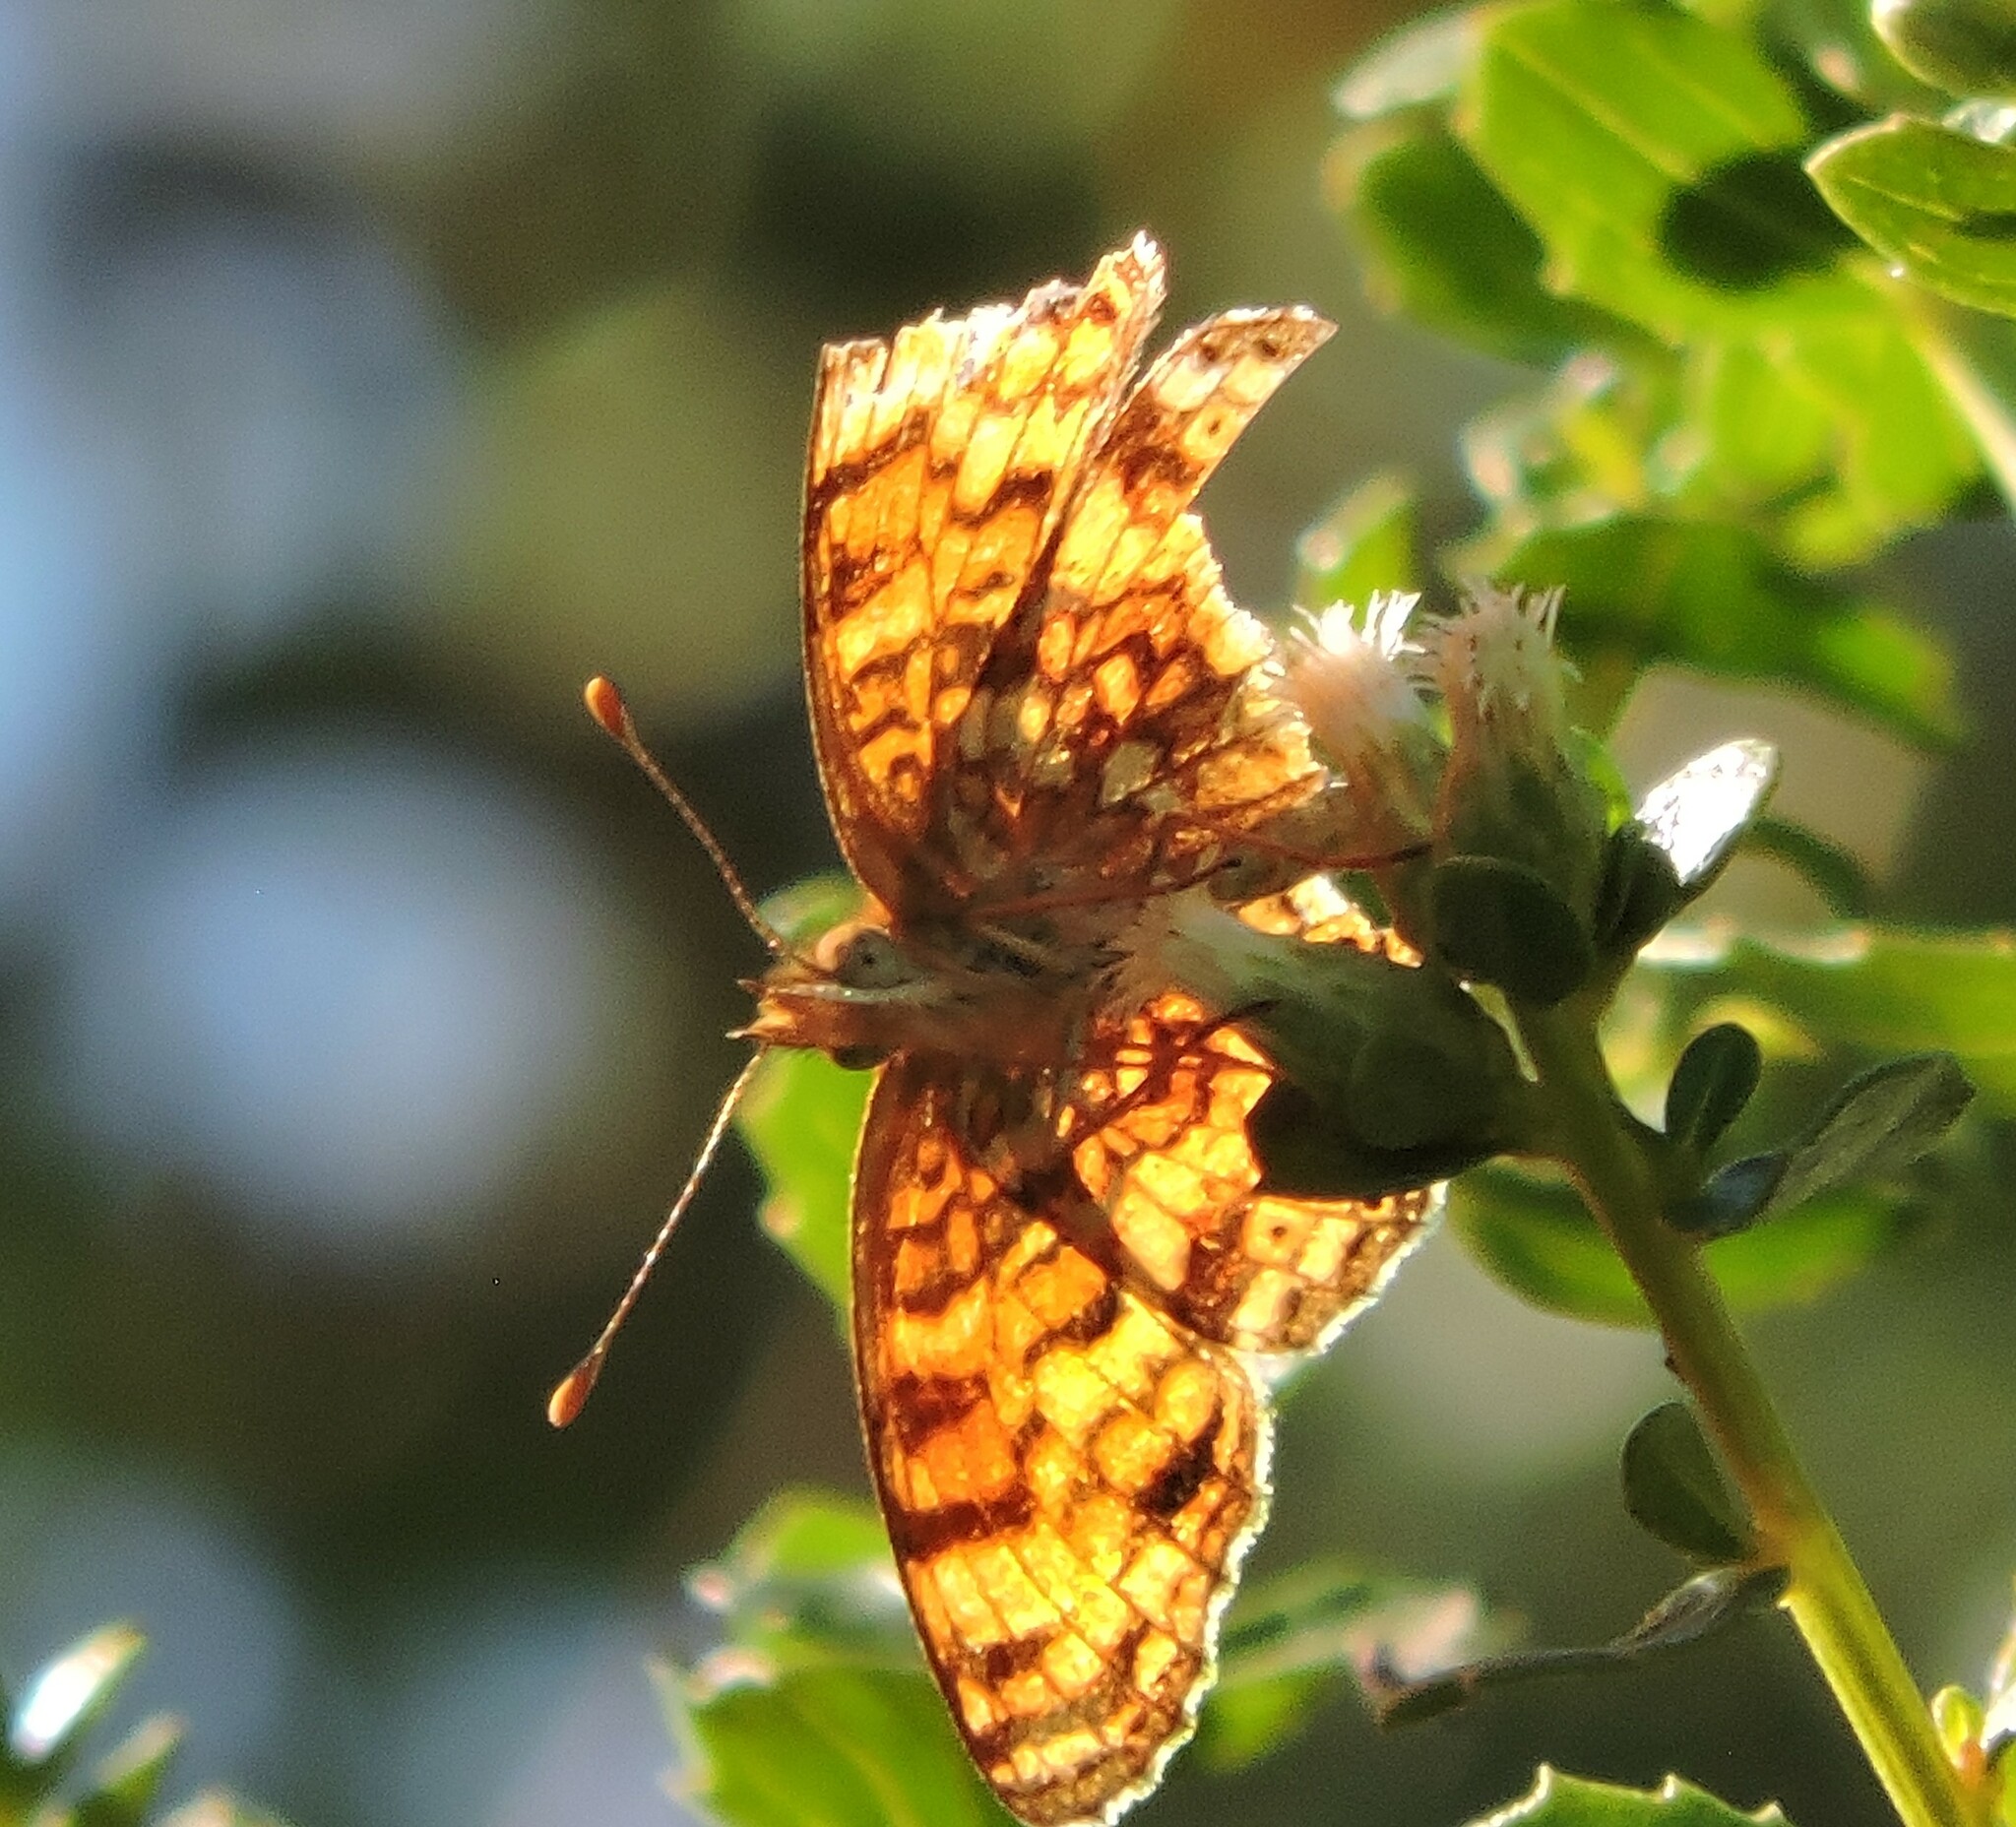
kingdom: Animalia
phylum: Arthropoda
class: Insecta
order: Lepidoptera
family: Nymphalidae
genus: Eresia
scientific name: Eresia aveyrona
